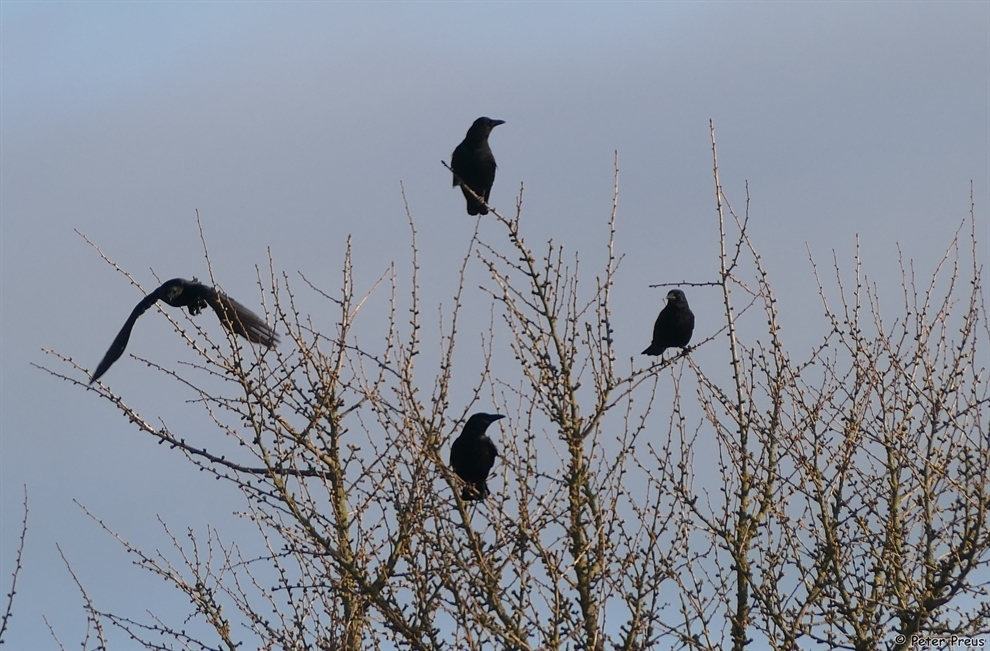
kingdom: Animalia
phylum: Chordata
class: Aves
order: Passeriformes
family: Corvidae
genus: Corvus
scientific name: Corvus corone
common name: Carrion crow
